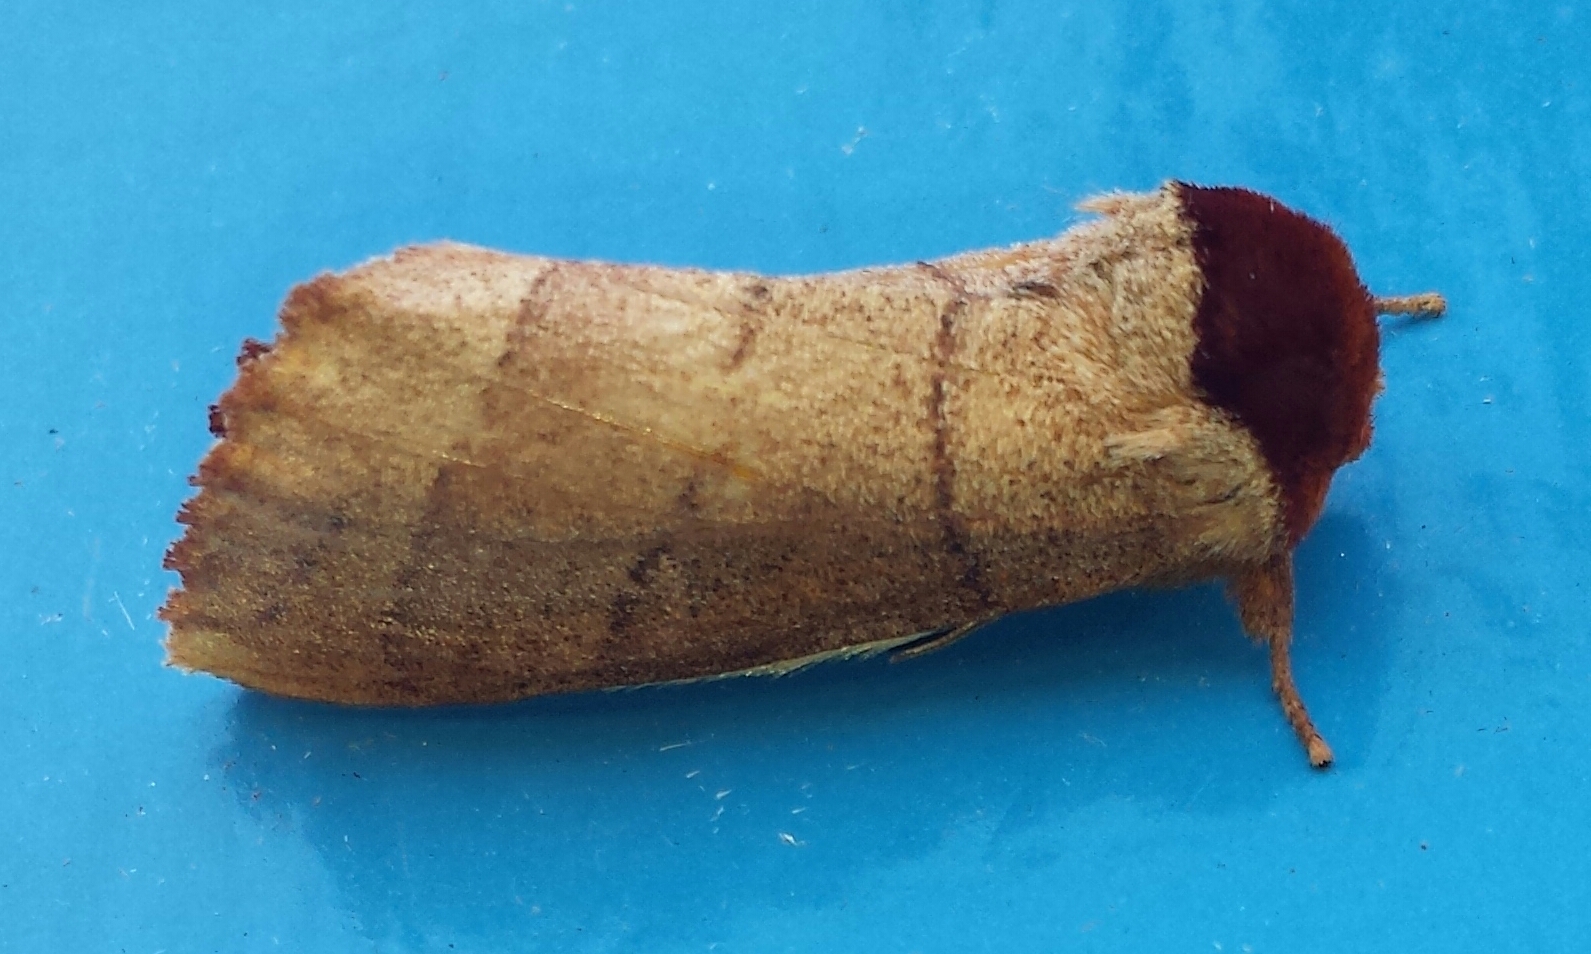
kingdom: Animalia
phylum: Arthropoda
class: Insecta
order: Lepidoptera
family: Notodontidae
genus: Datana
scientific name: Datana ministra
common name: Yellow-necked caterpillar moth
